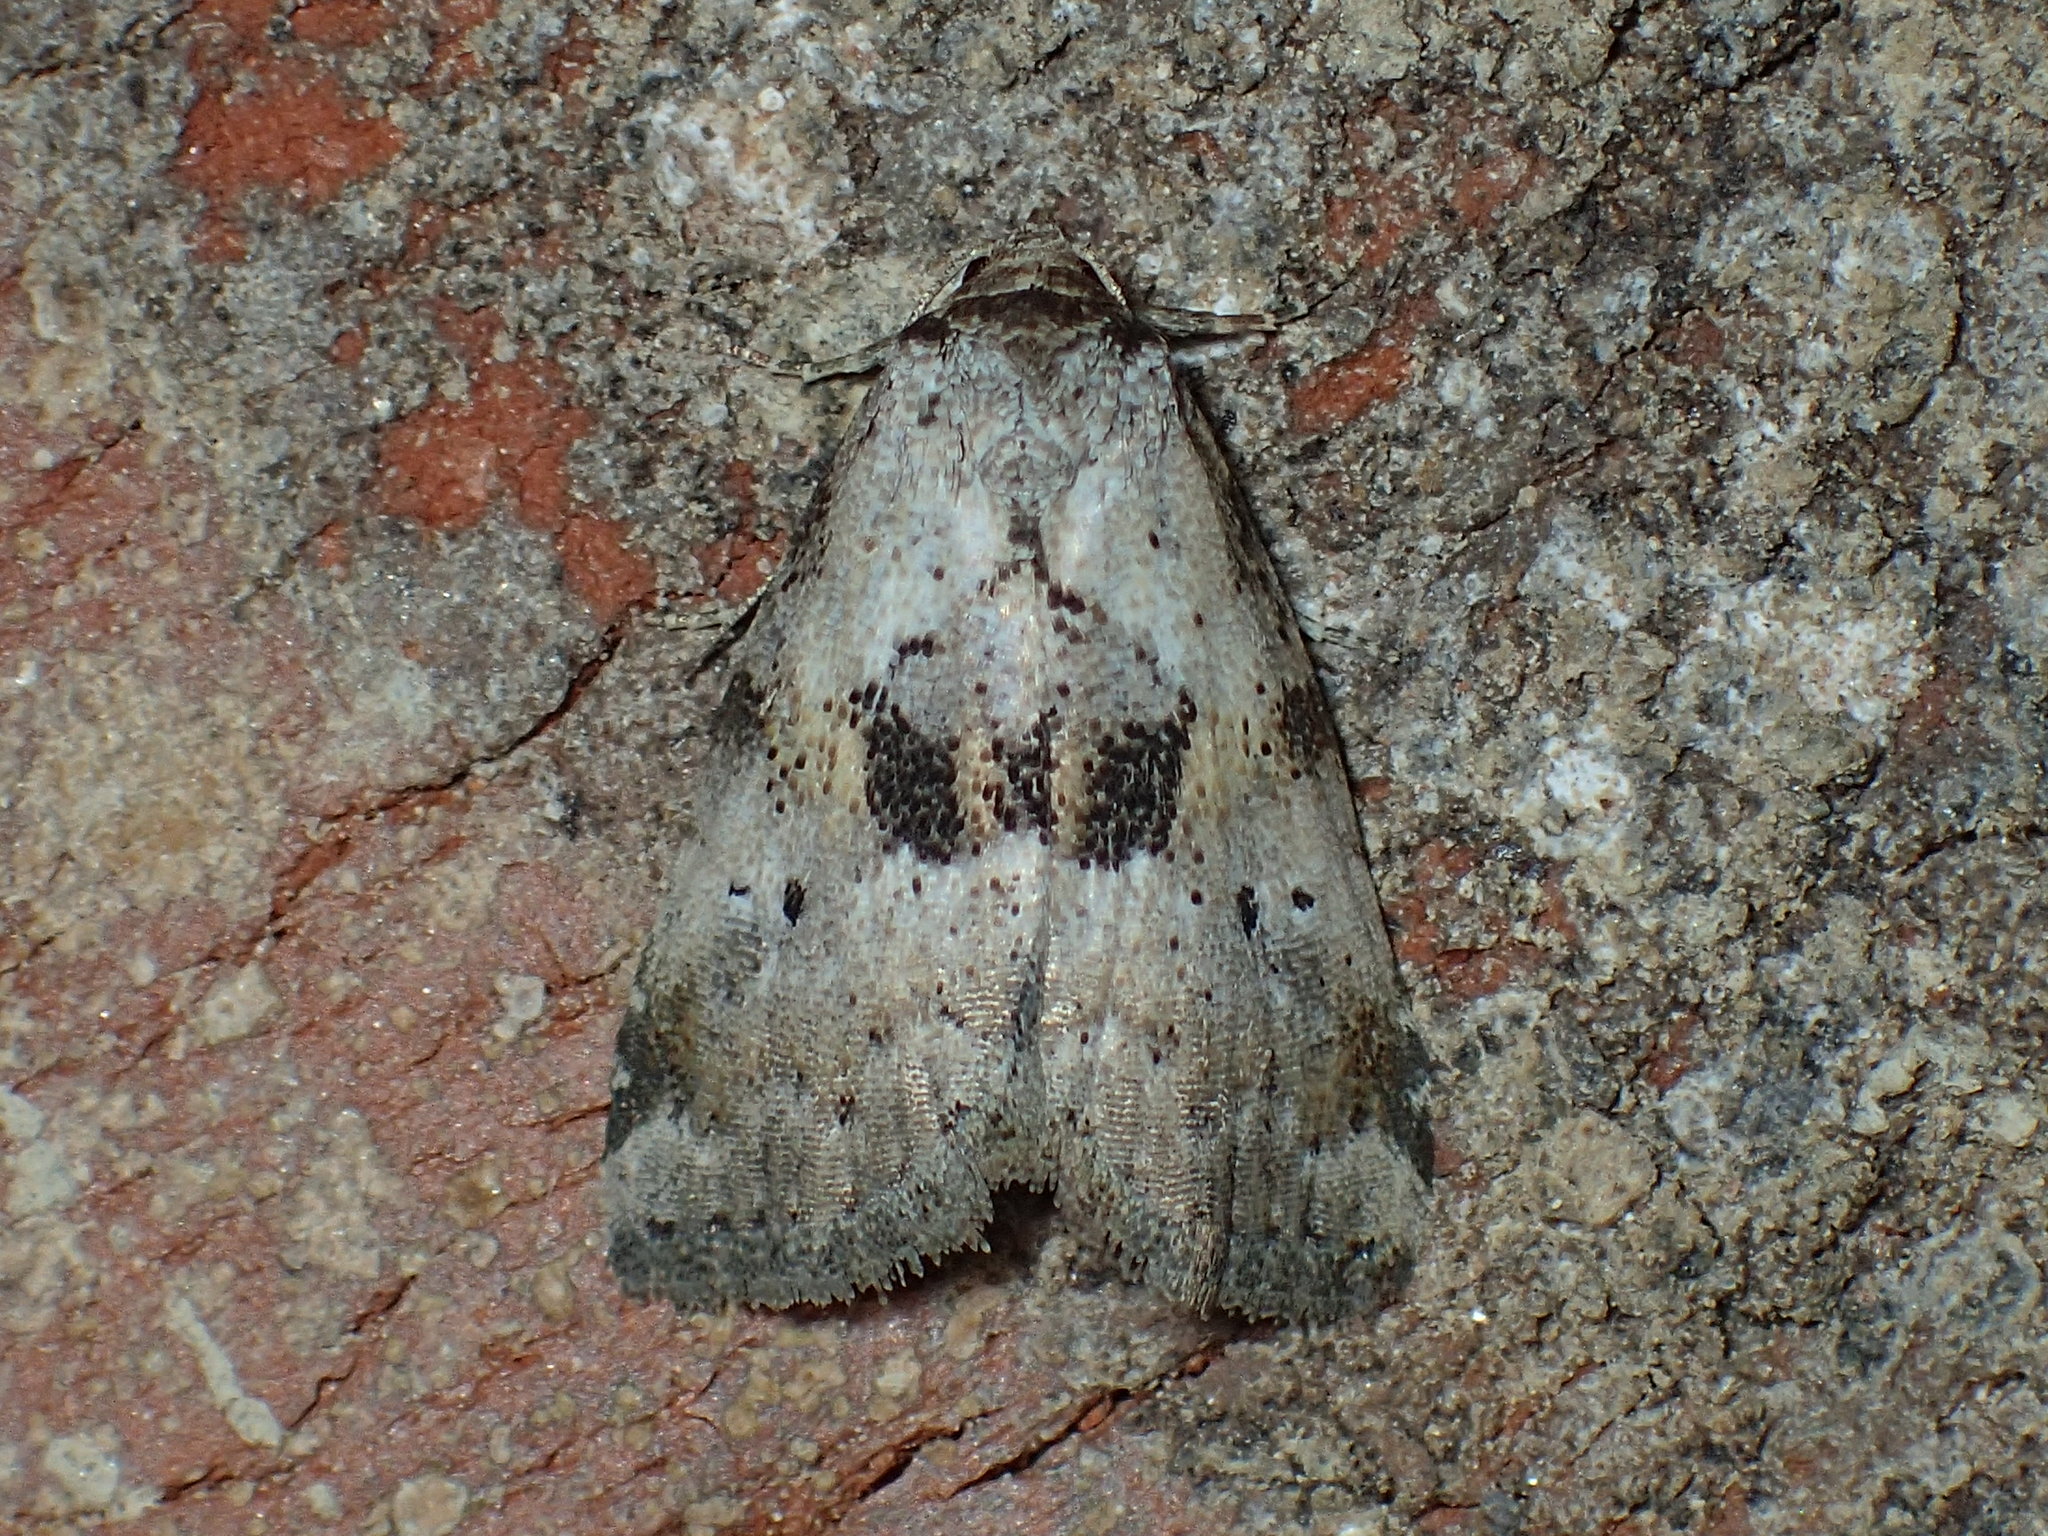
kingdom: Animalia
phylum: Arthropoda
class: Insecta
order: Lepidoptera
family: Erebidae
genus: Hyperstrotia
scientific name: Hyperstrotia secta
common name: Black-patched graylet
